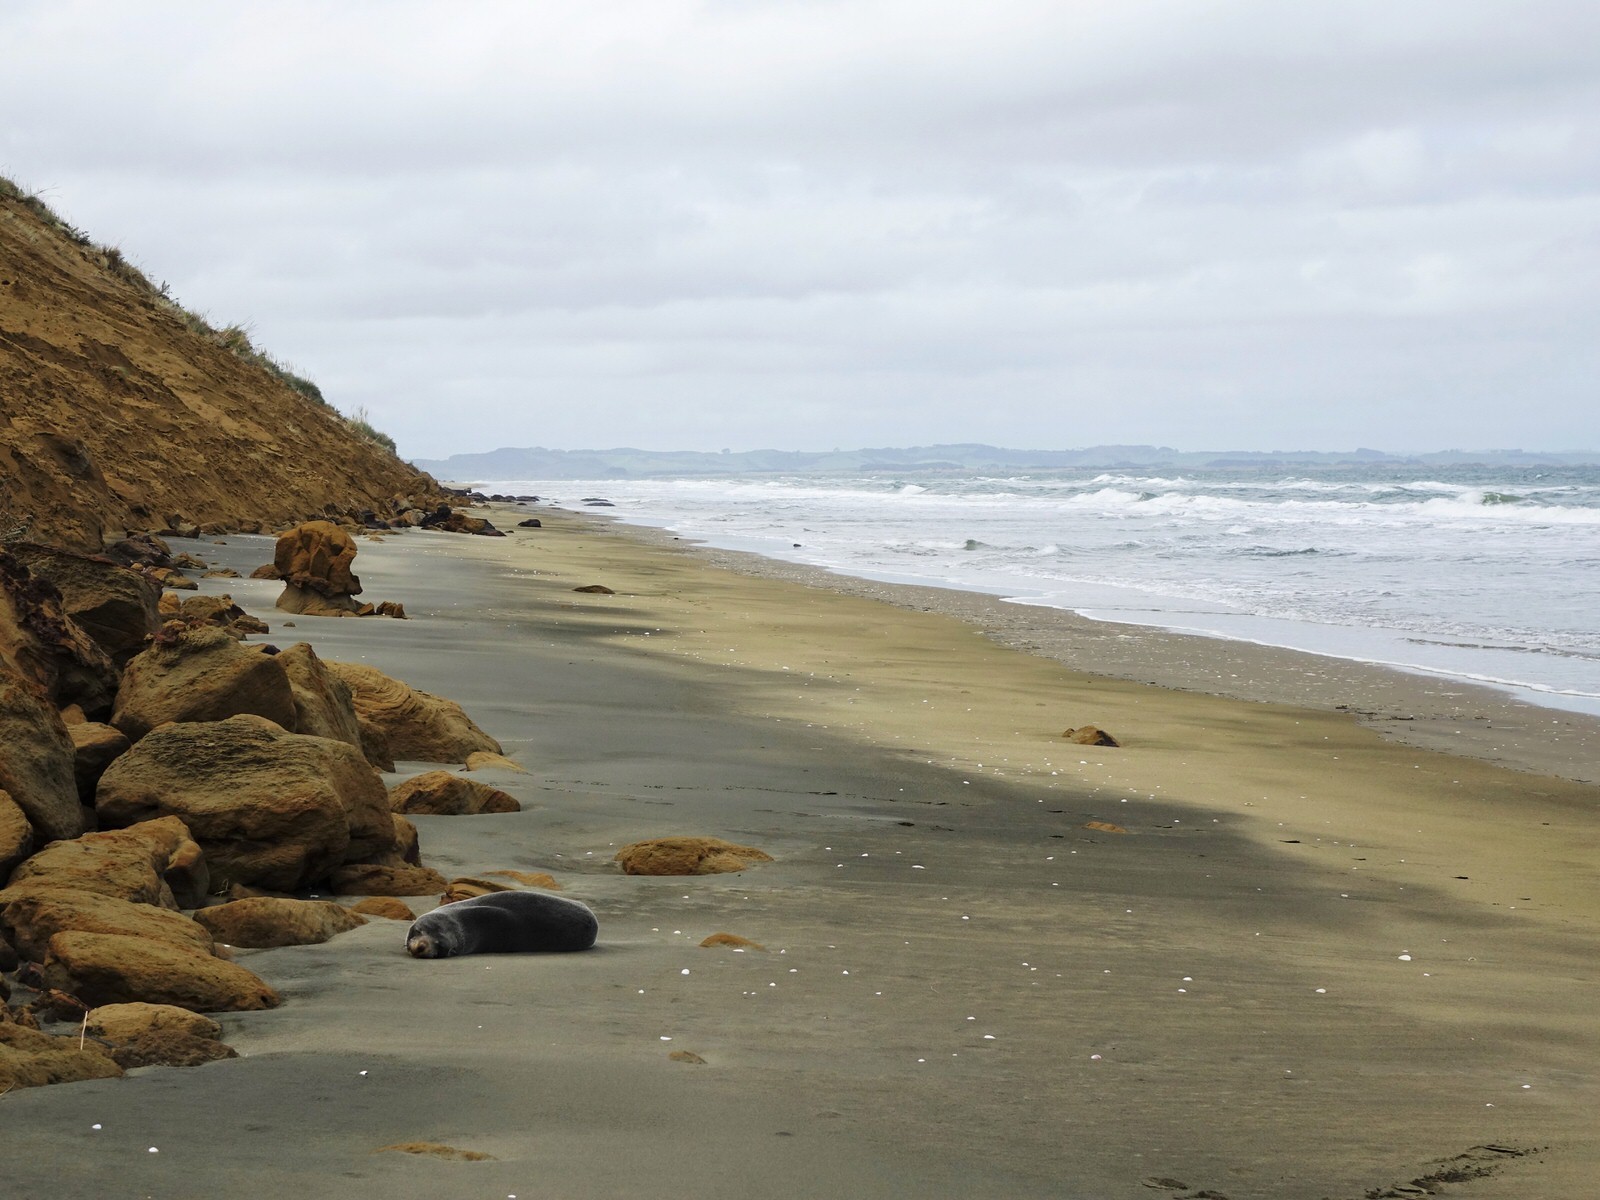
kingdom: Animalia
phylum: Chordata
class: Mammalia
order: Carnivora
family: Otariidae
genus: Arctocephalus
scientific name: Arctocephalus forsteri
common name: New zealand fur seal
